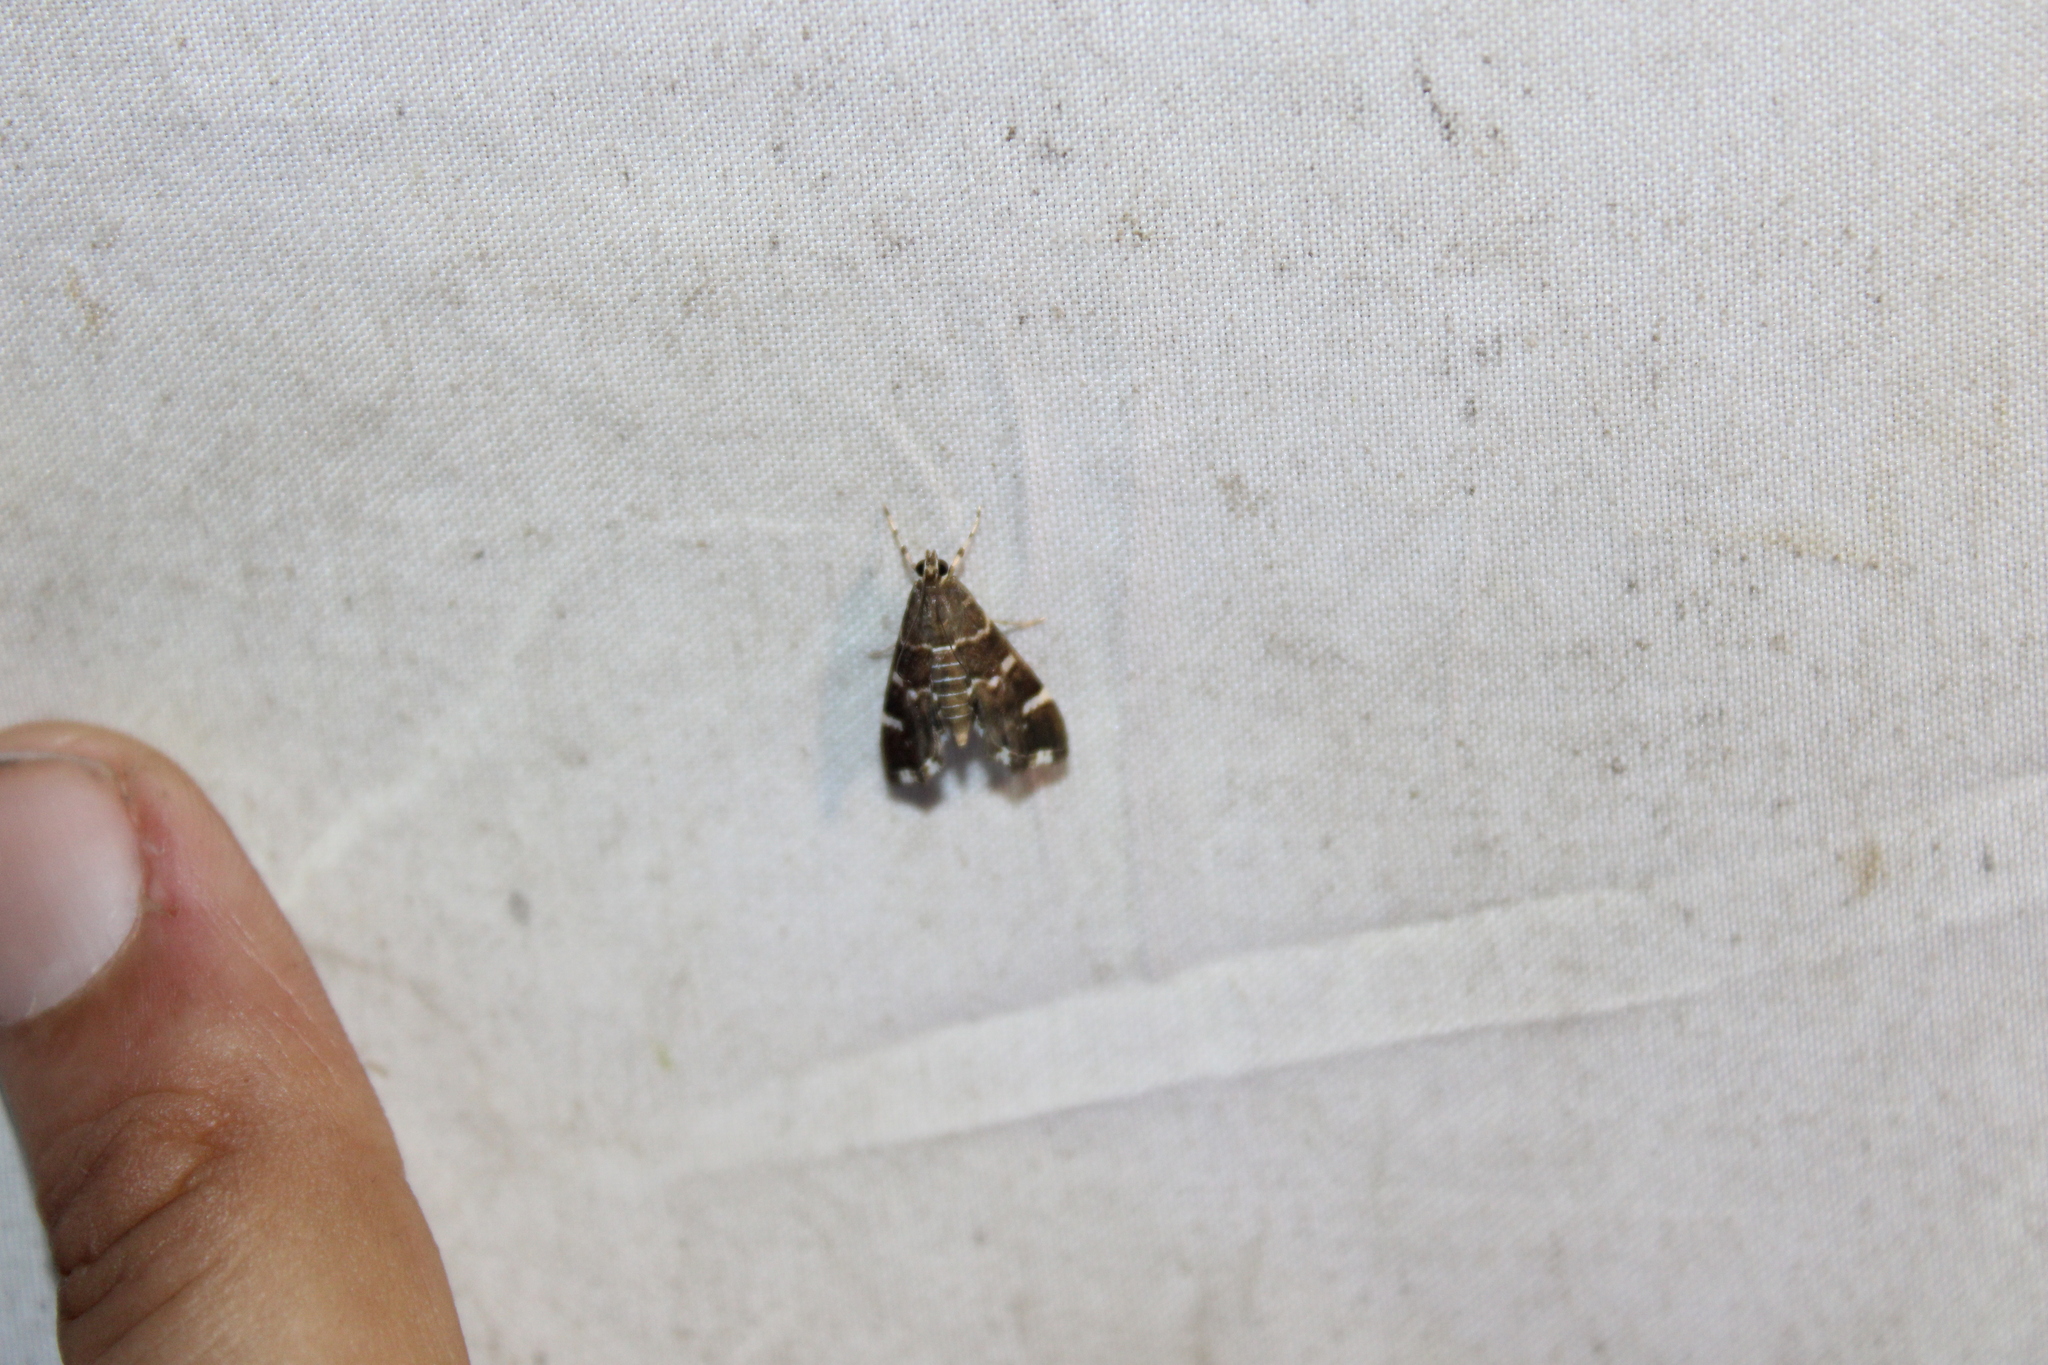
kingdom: Animalia
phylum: Arthropoda
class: Insecta
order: Lepidoptera
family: Crambidae
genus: Hymenia
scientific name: Hymenia perspectalis
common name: Spotted beet webworm
